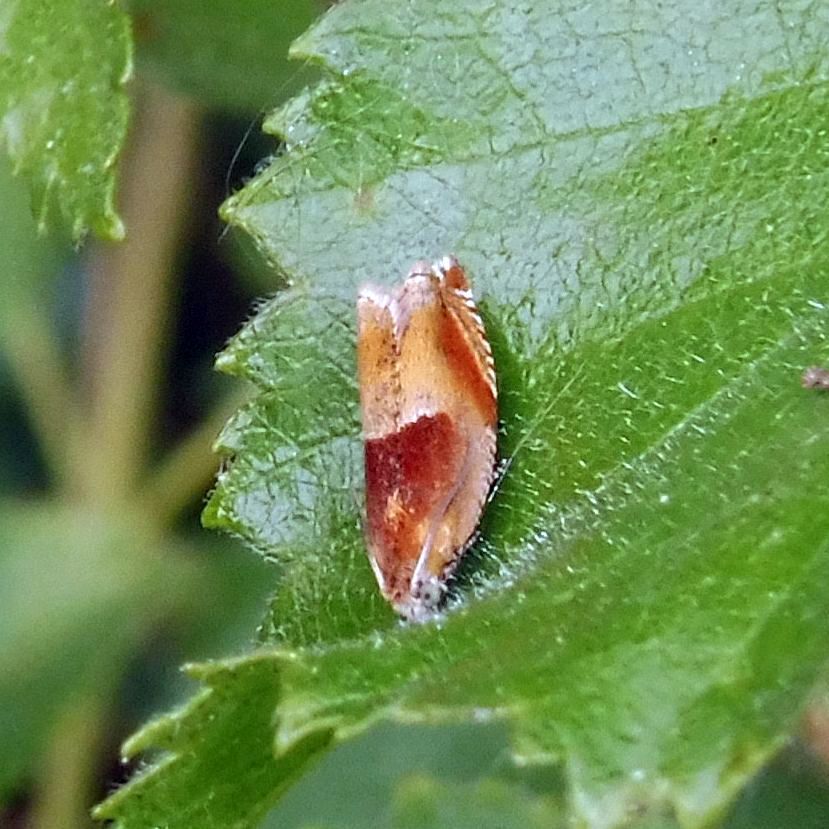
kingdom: Animalia
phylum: Arthropoda
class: Insecta
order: Lepidoptera
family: Tortricidae
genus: Ancylis
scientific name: Ancylis mitterbacheriana
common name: Red roller
